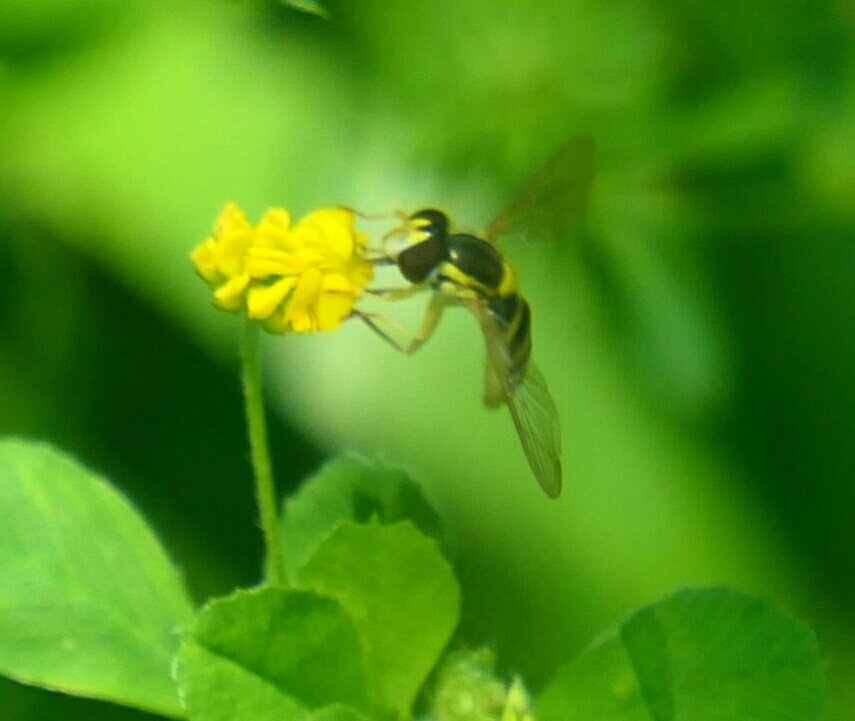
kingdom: Animalia
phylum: Arthropoda
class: Insecta
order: Diptera
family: Syrphidae
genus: Sphaerophoria
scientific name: Sphaerophoria
